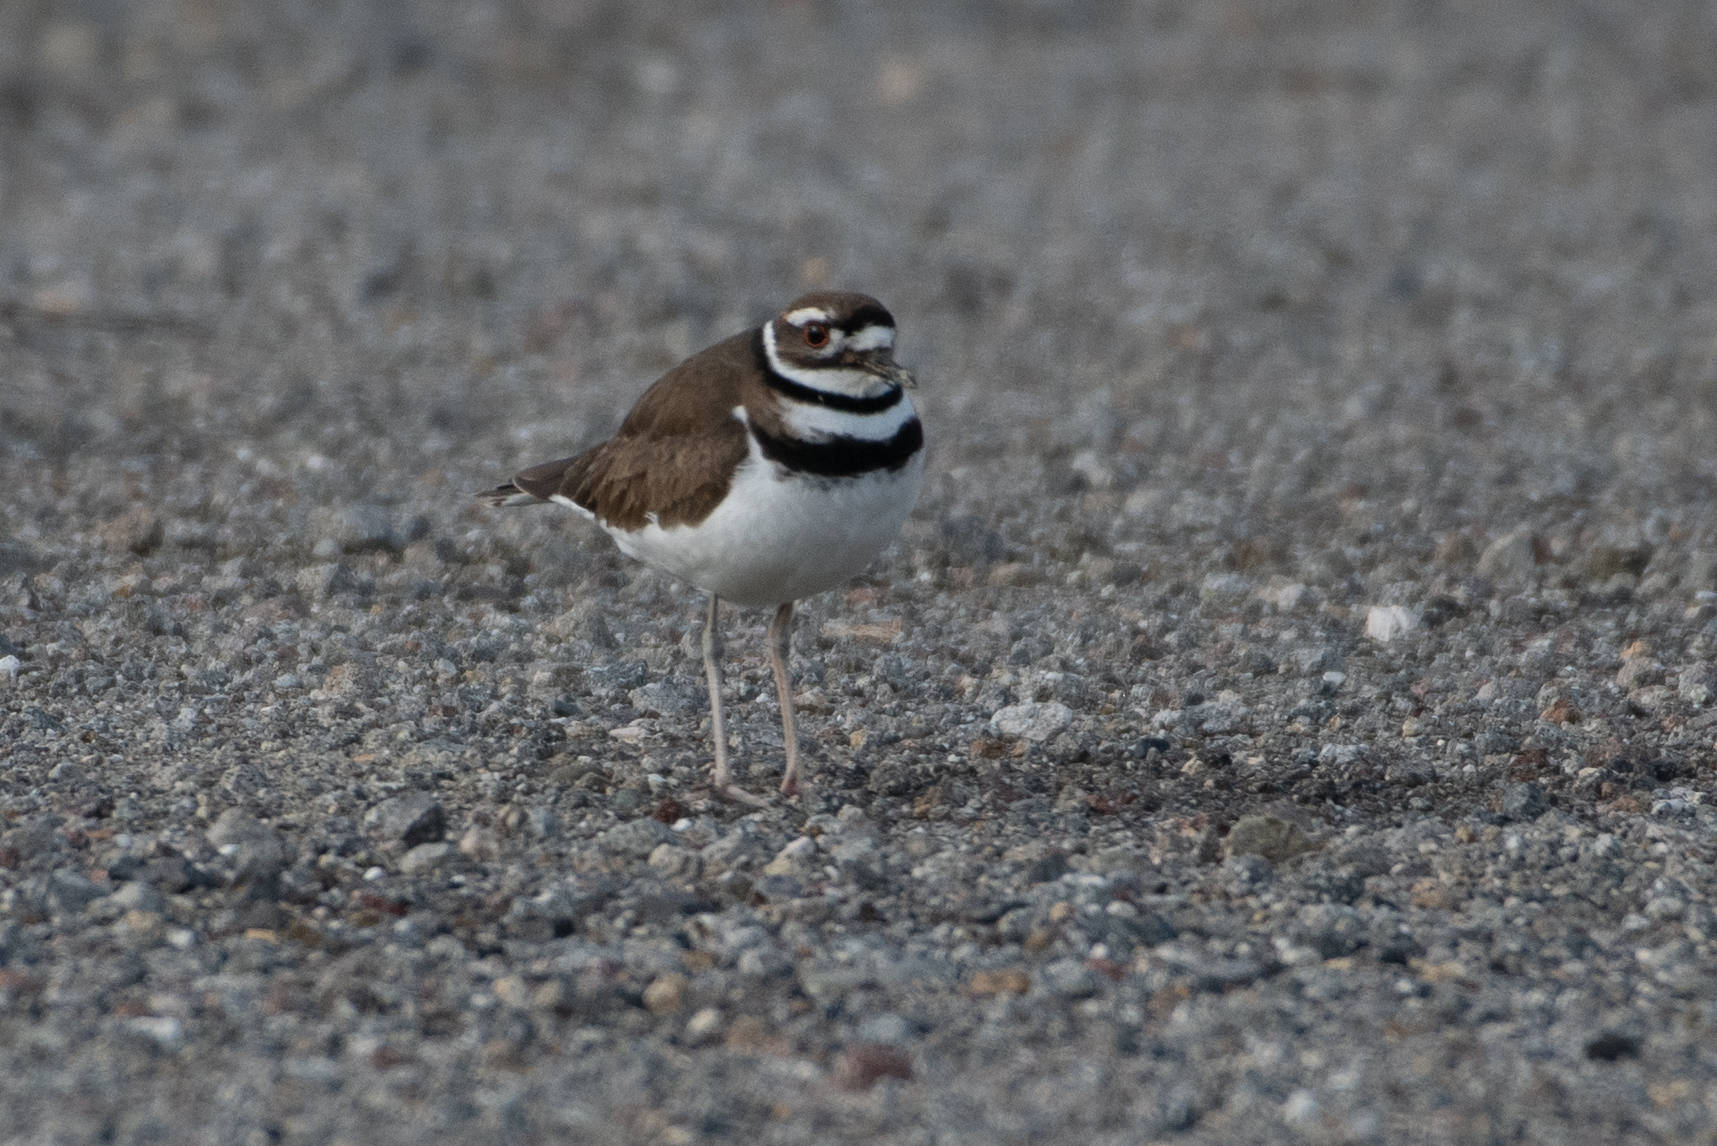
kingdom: Animalia
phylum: Chordata
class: Aves
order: Charadriiformes
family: Charadriidae
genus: Charadrius
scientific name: Charadrius vociferus
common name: Killdeer
